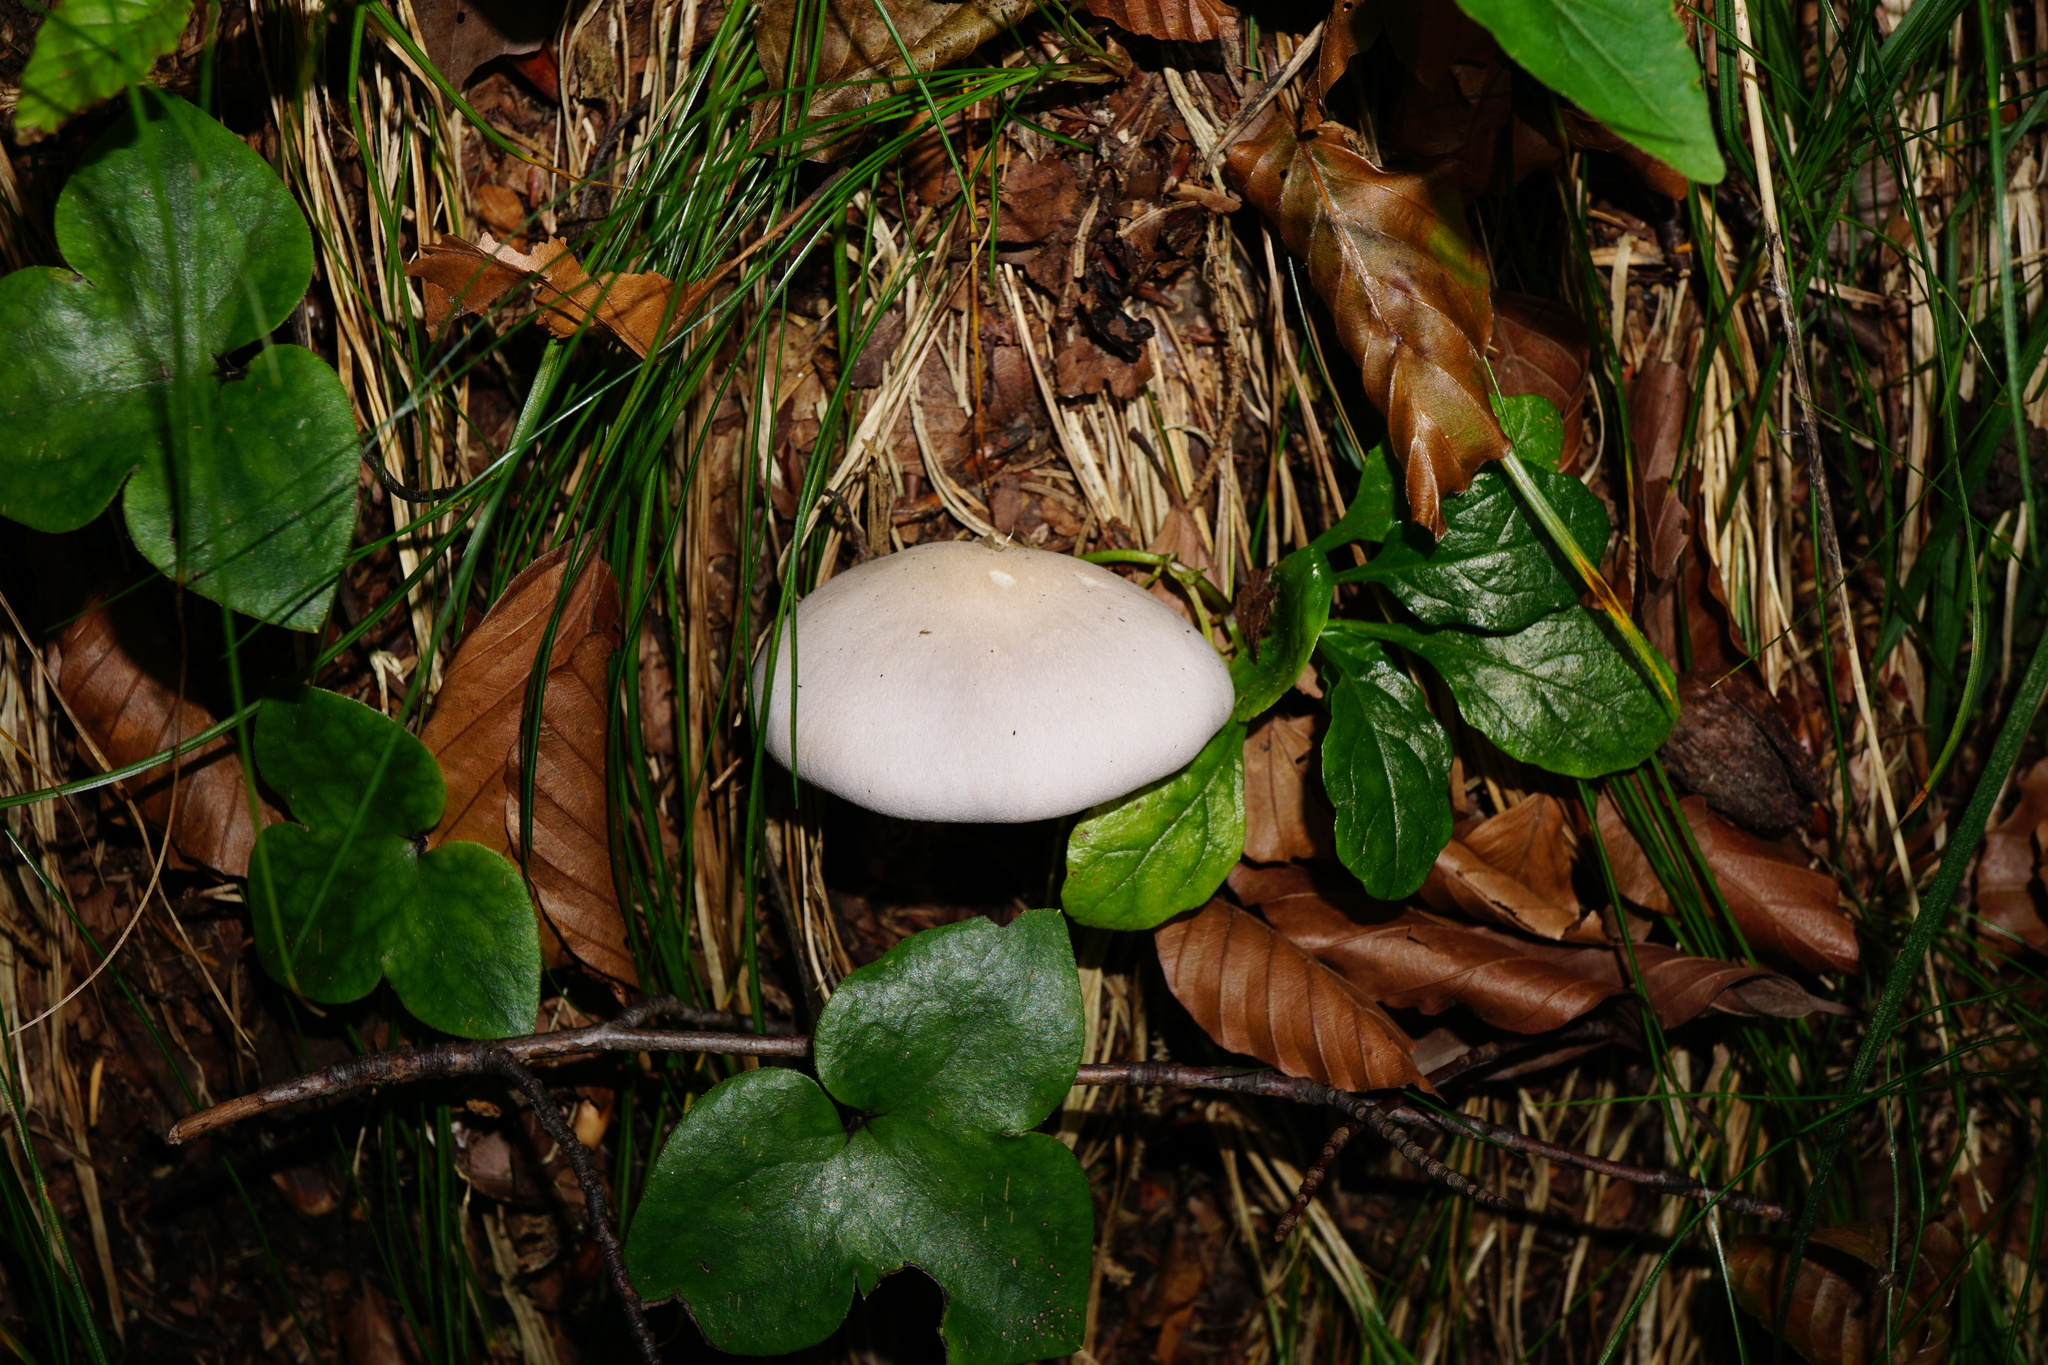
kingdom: Fungi
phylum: Basidiomycota
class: Agaricomycetes
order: Agaricales
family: Tricholomataceae
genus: Lepista
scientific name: Lepista glaucocana
